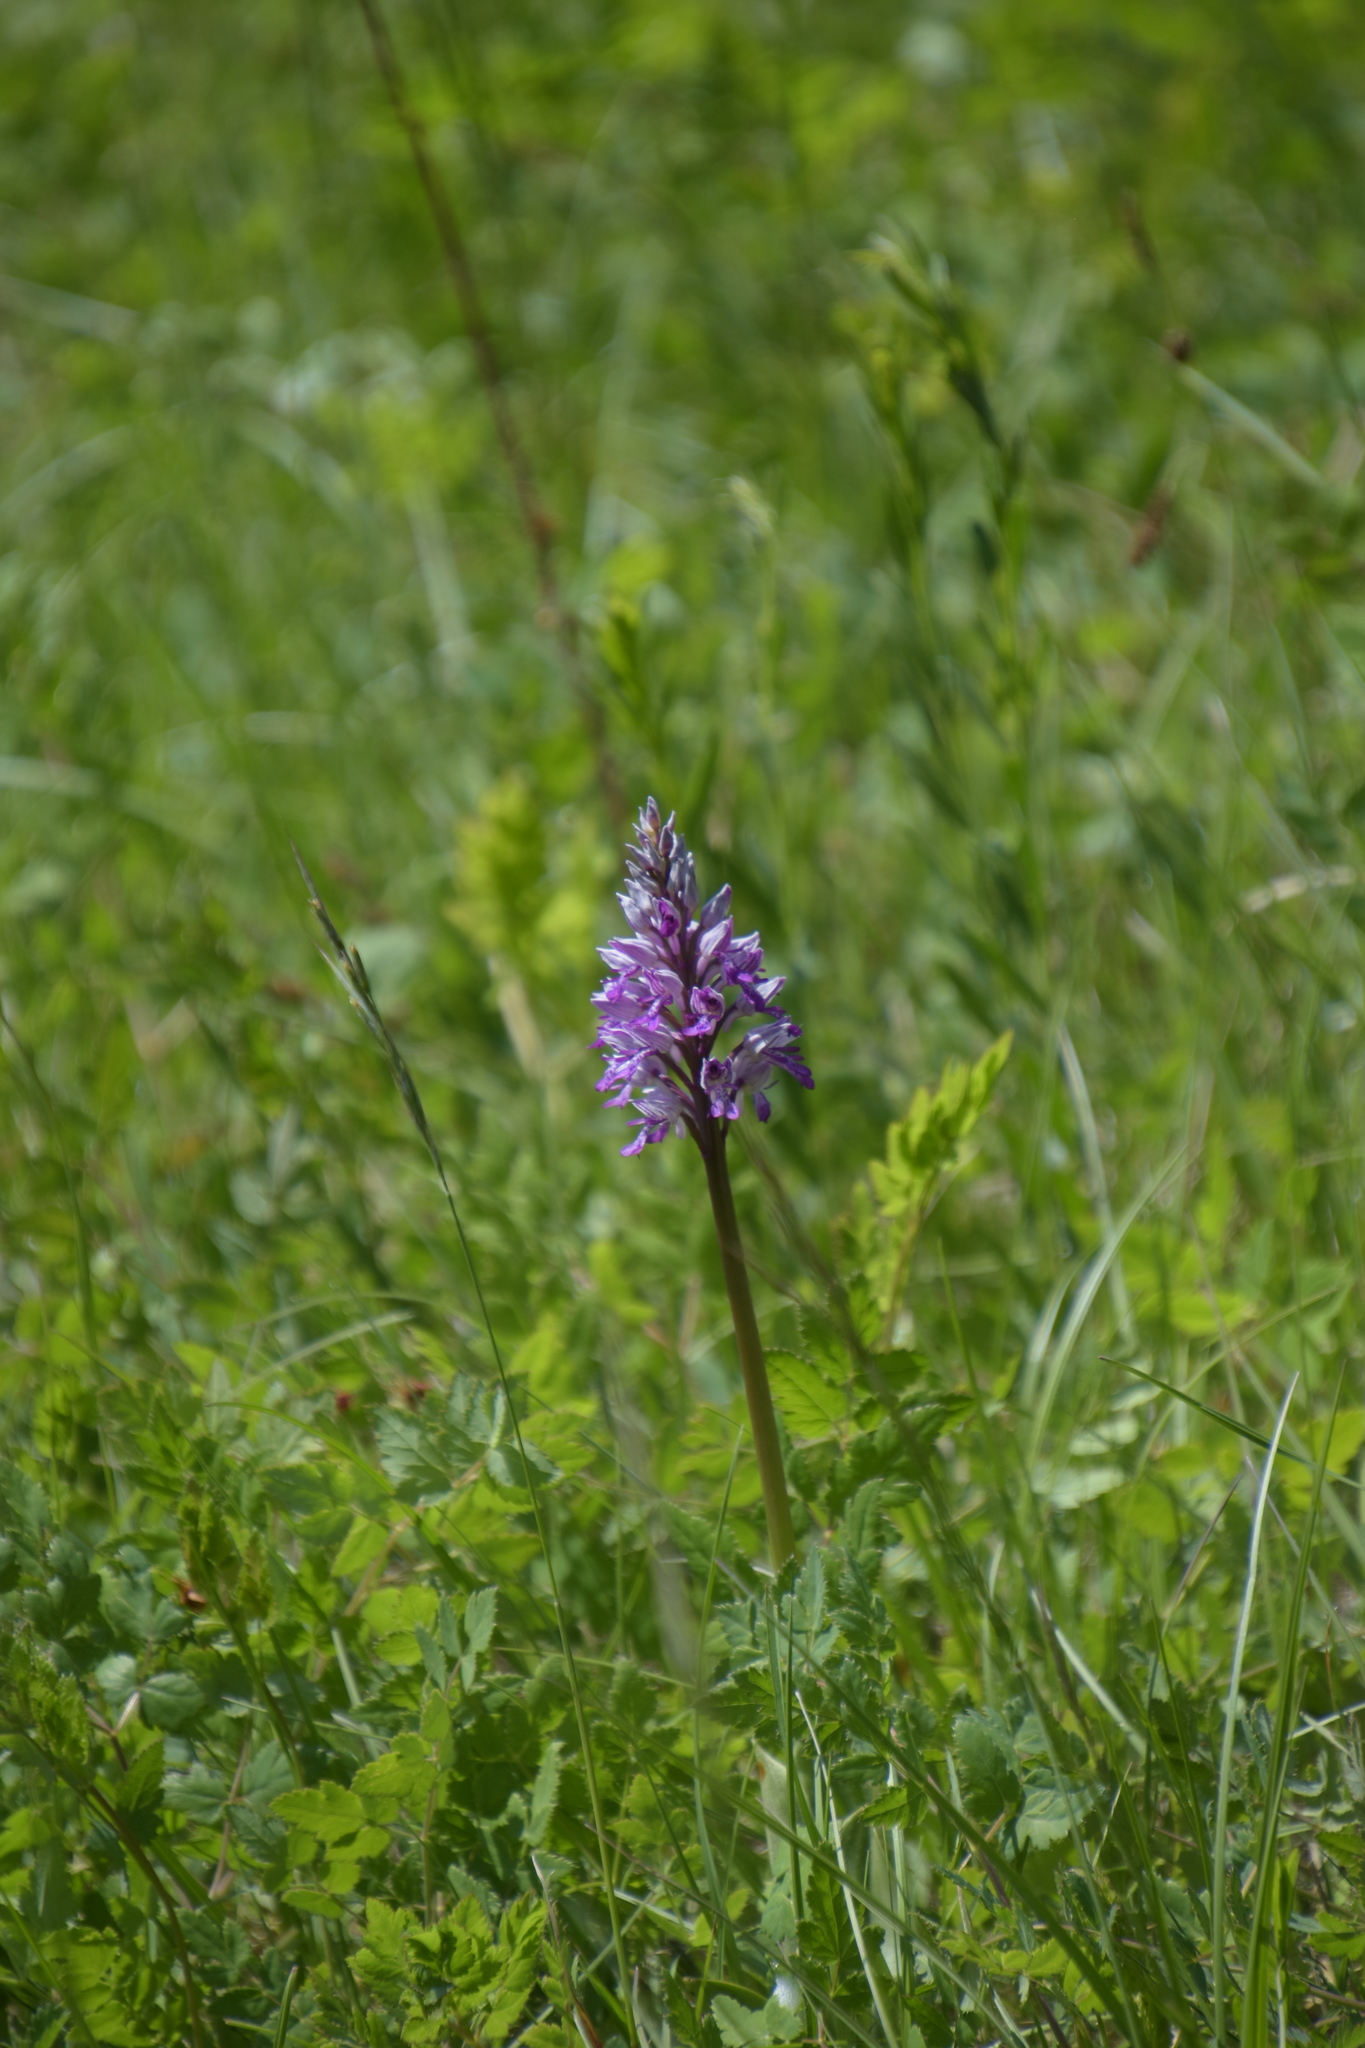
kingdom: Plantae
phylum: Tracheophyta
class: Liliopsida
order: Asparagales
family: Orchidaceae
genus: Orchis
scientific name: Orchis militaris
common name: Military orchid
